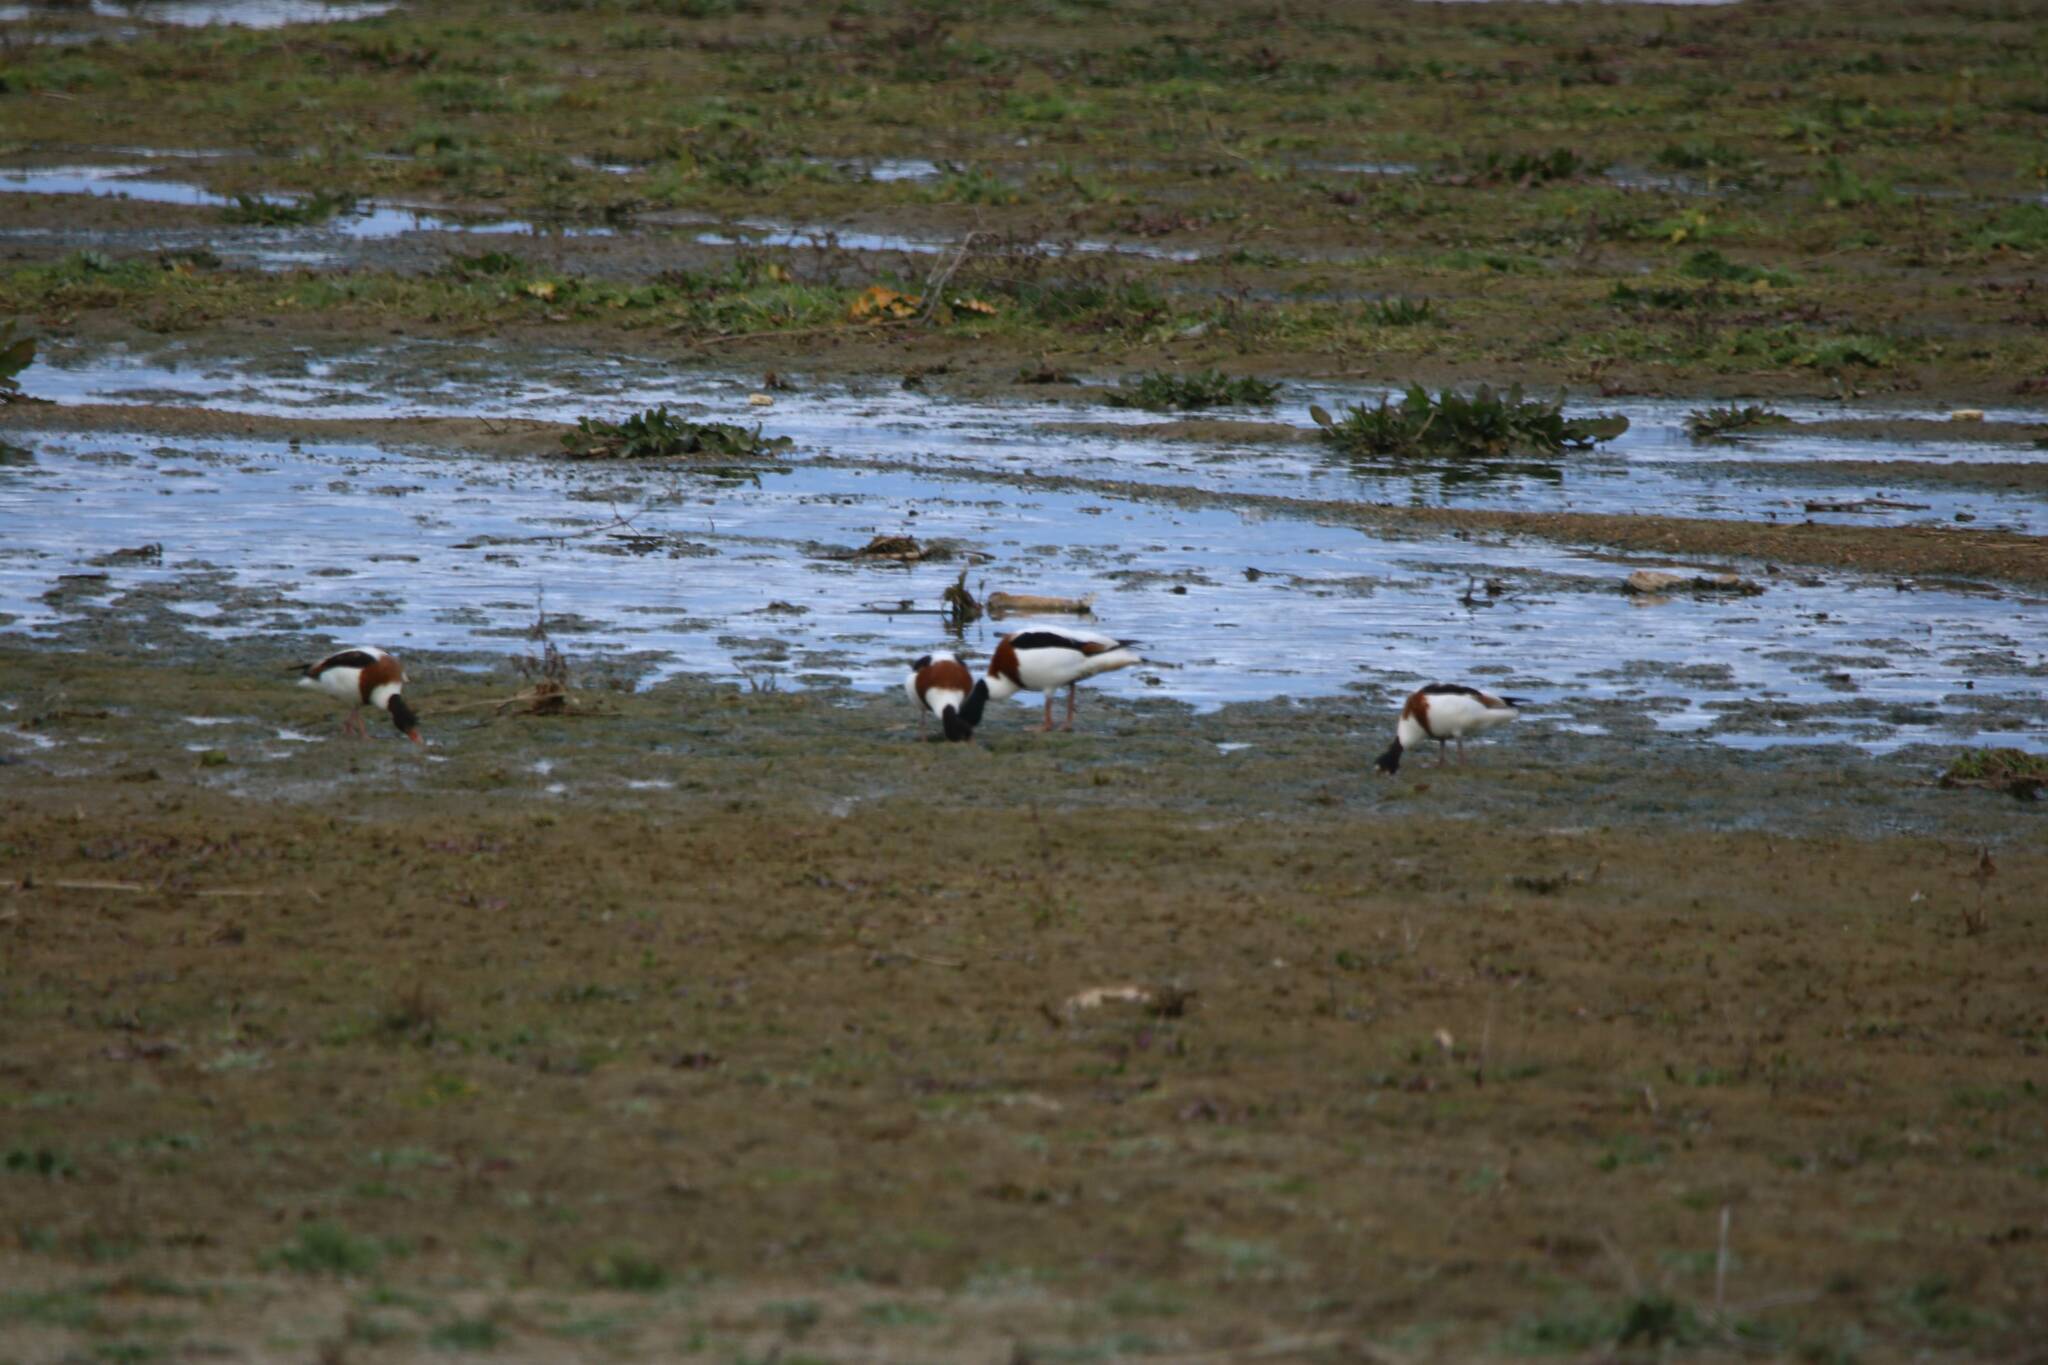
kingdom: Animalia
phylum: Chordata
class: Aves
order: Anseriformes
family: Anatidae
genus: Tadorna
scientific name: Tadorna tadorna
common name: Common shelduck
